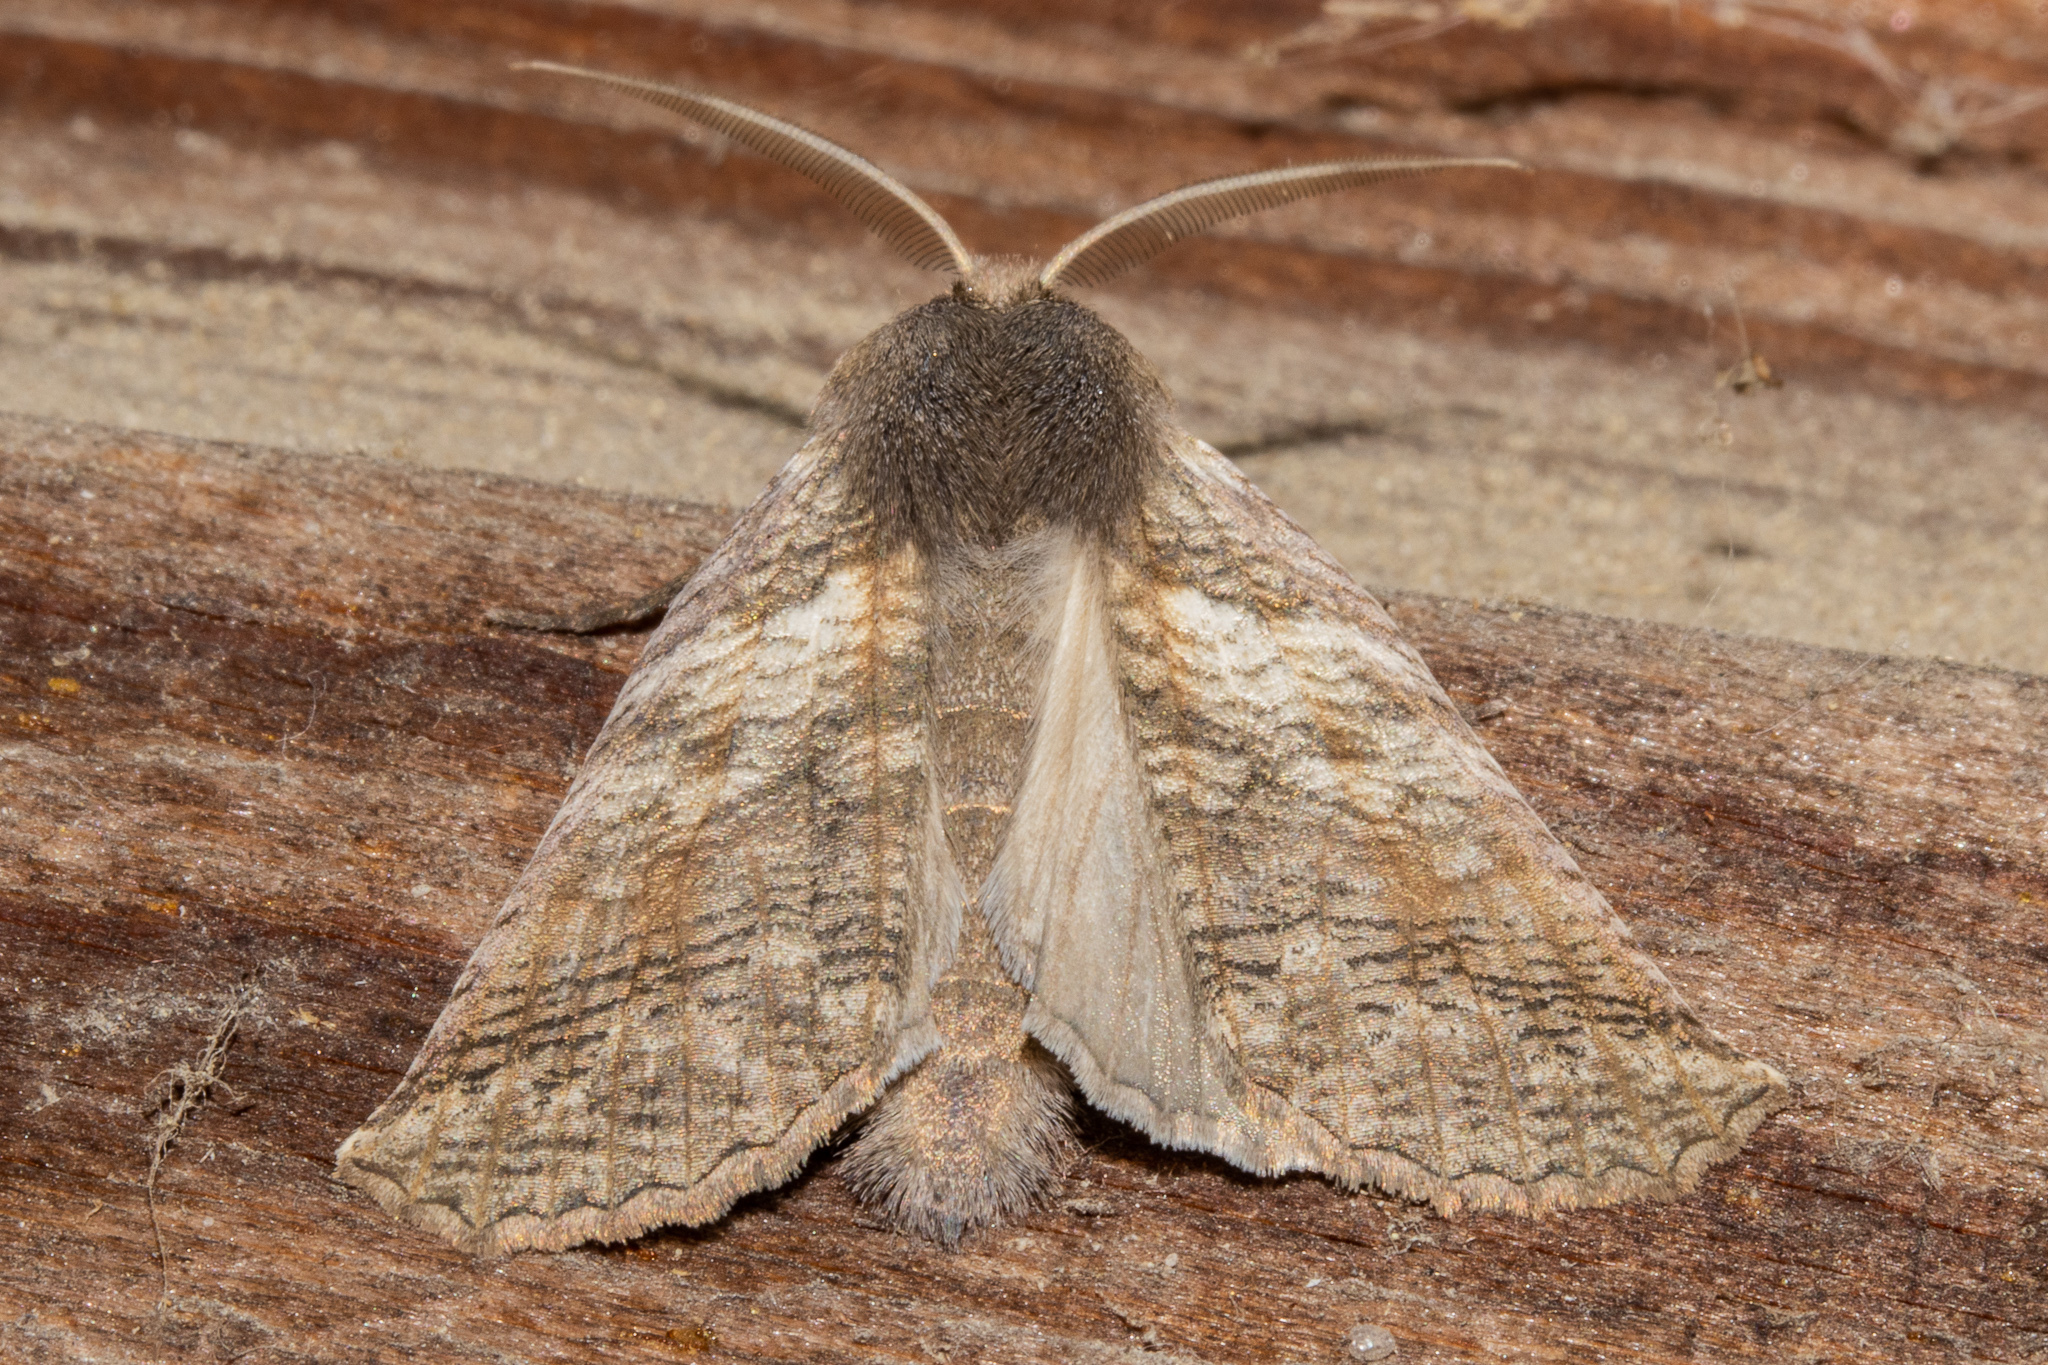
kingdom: Animalia
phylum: Arthropoda
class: Insecta
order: Lepidoptera
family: Geometridae
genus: Declana
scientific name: Declana
